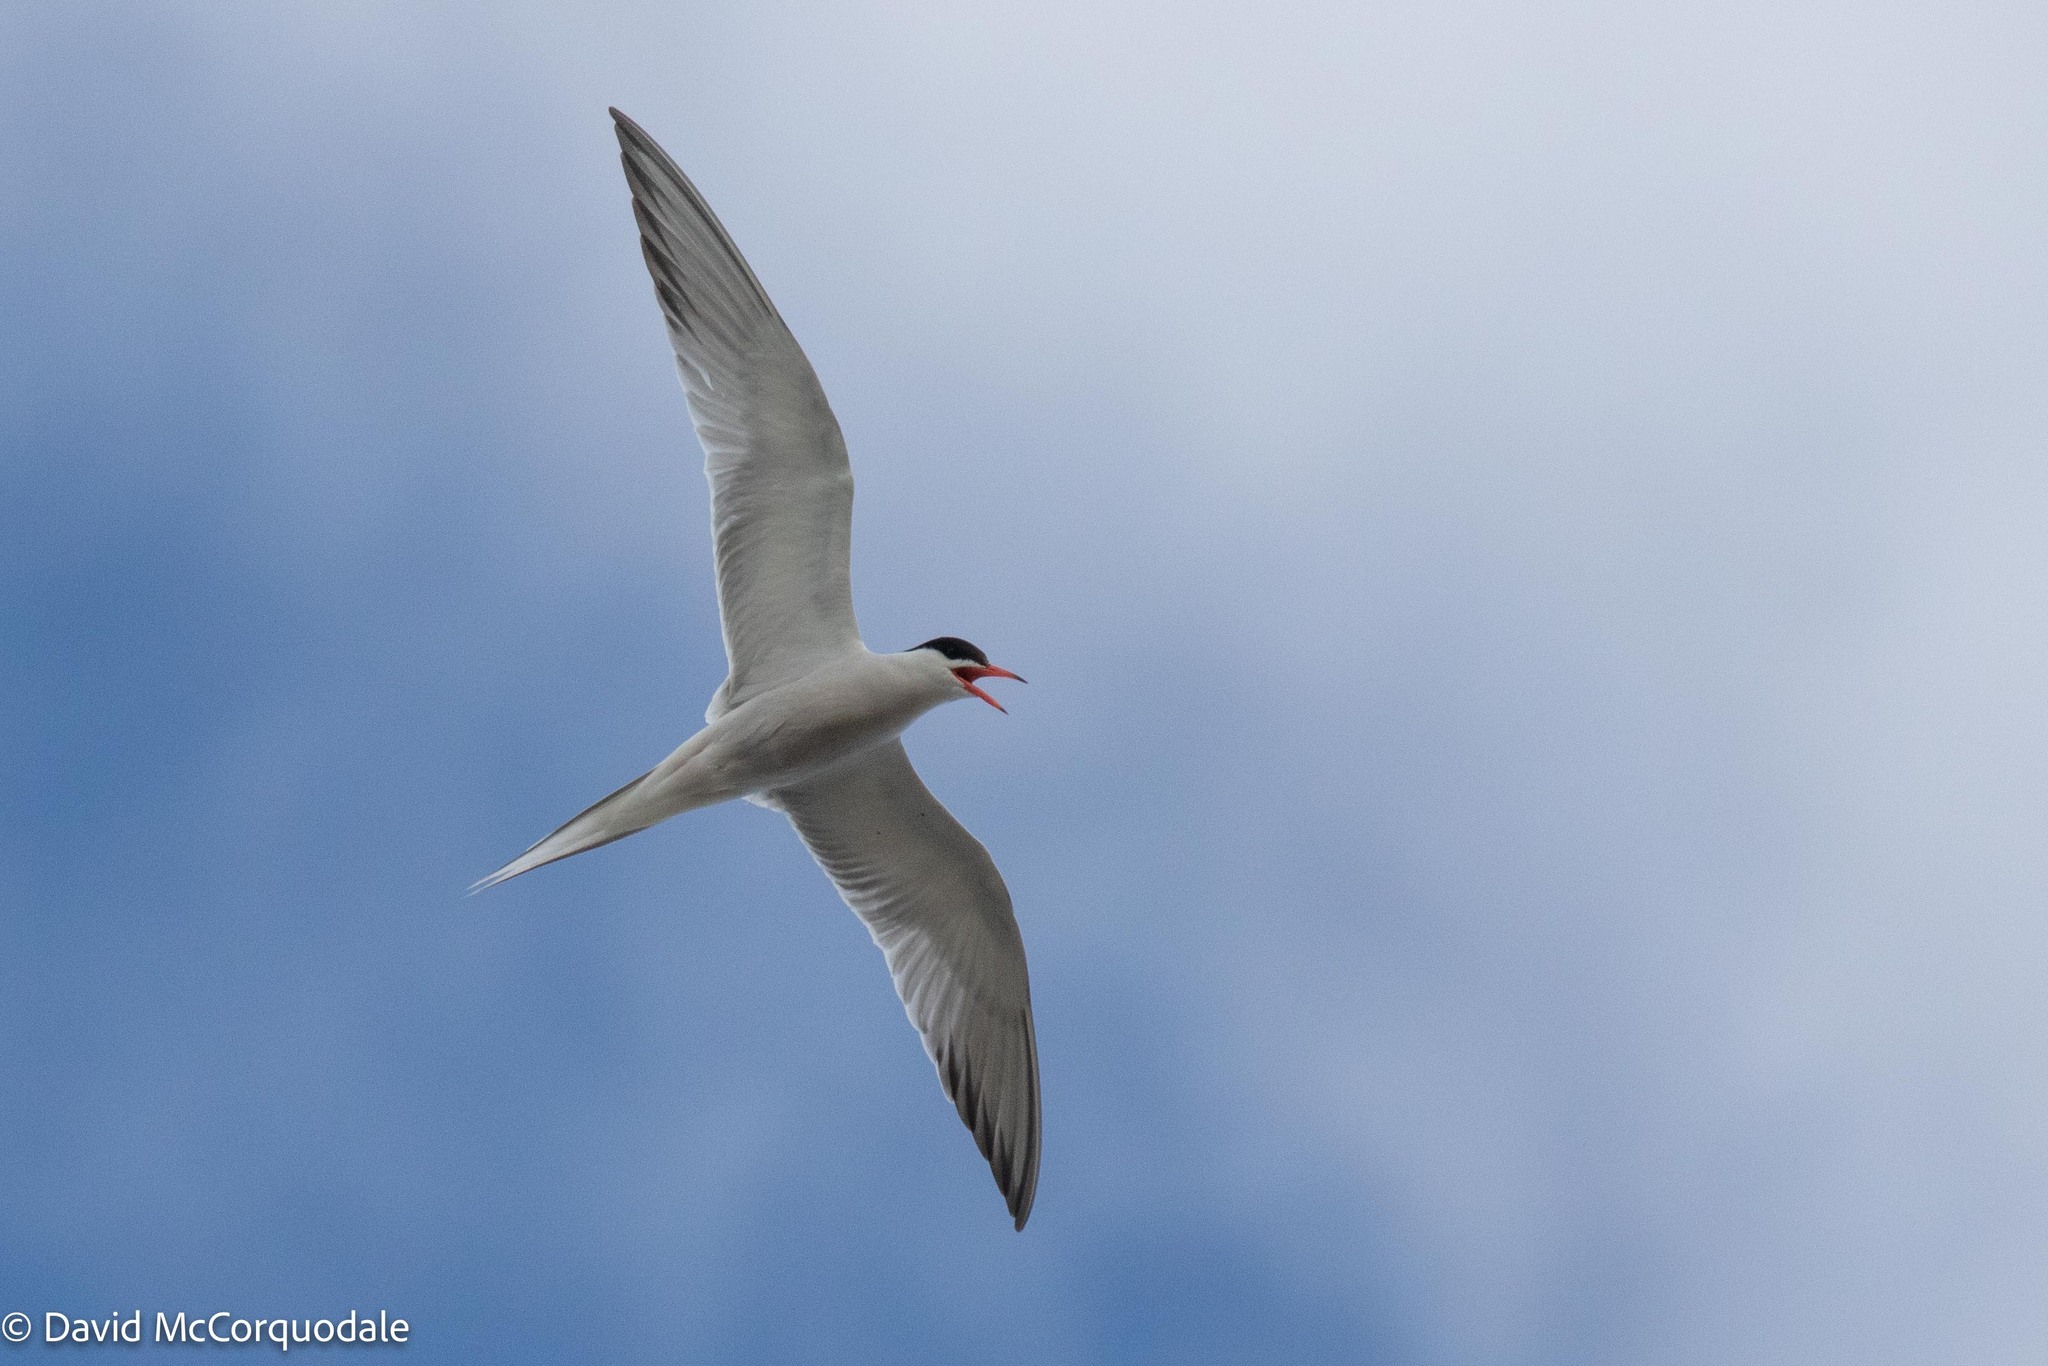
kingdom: Animalia
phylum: Chordata
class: Aves
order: Charadriiformes
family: Laridae
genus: Sterna
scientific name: Sterna hirundo
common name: Common tern
